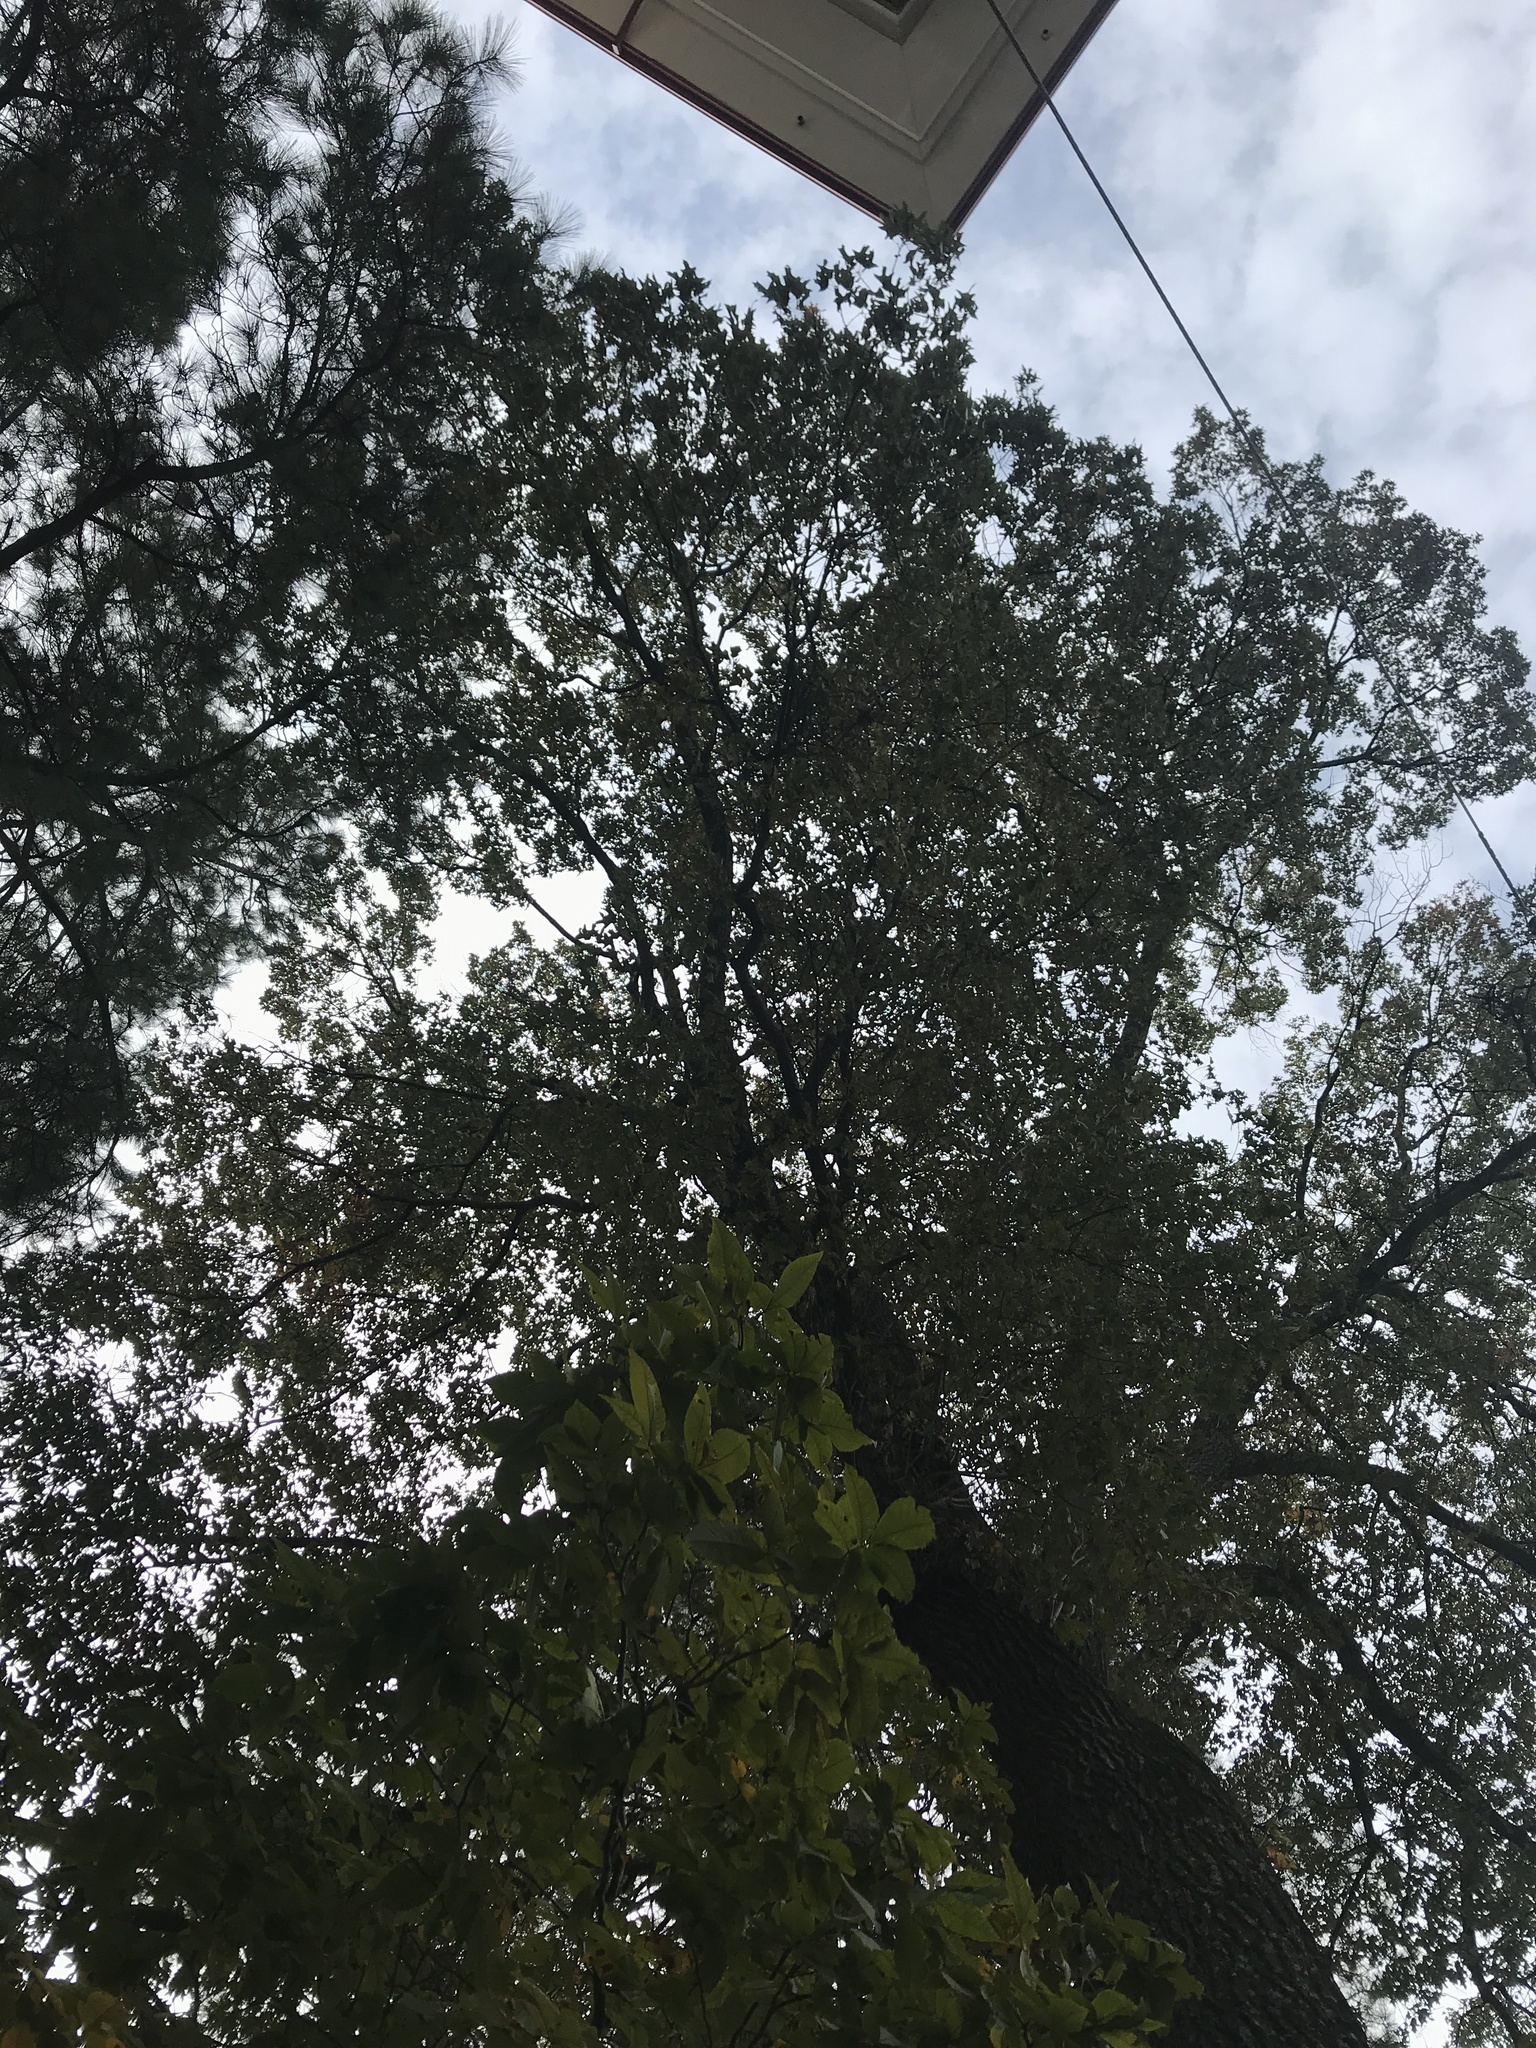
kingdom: Plantae
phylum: Tracheophyta
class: Magnoliopsida
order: Fagales
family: Fagaceae
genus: Quercus
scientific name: Quercus falcata
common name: Southern red oak
